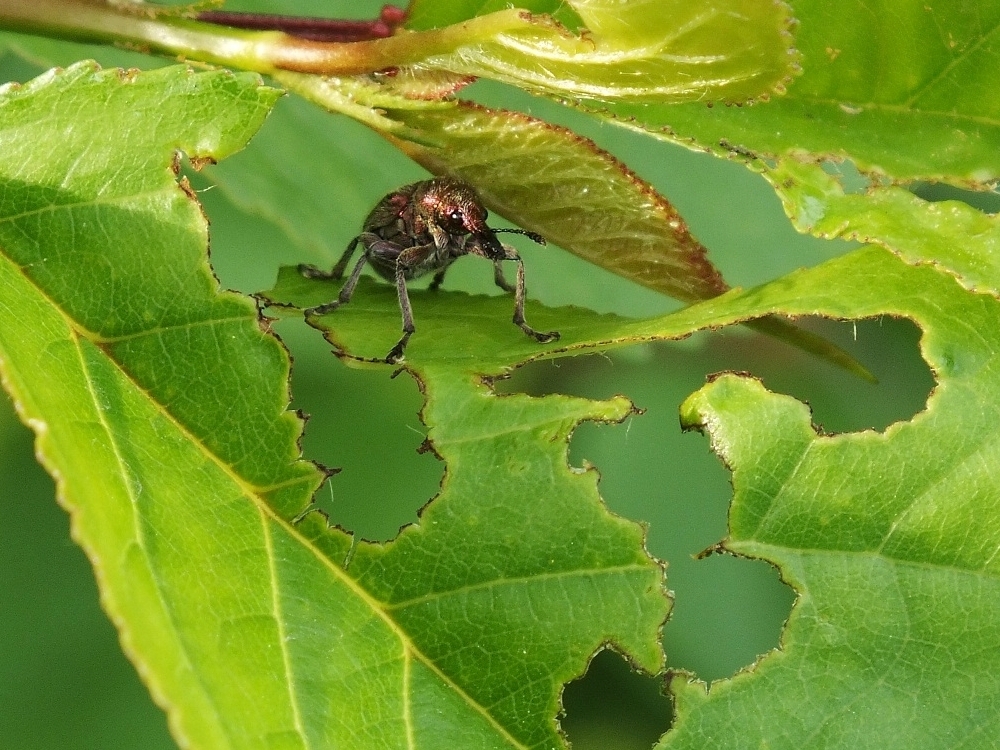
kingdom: Animalia
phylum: Arthropoda
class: Insecta
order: Coleoptera
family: Attelabidae
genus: Rhynchites
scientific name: Rhynchites auratus
